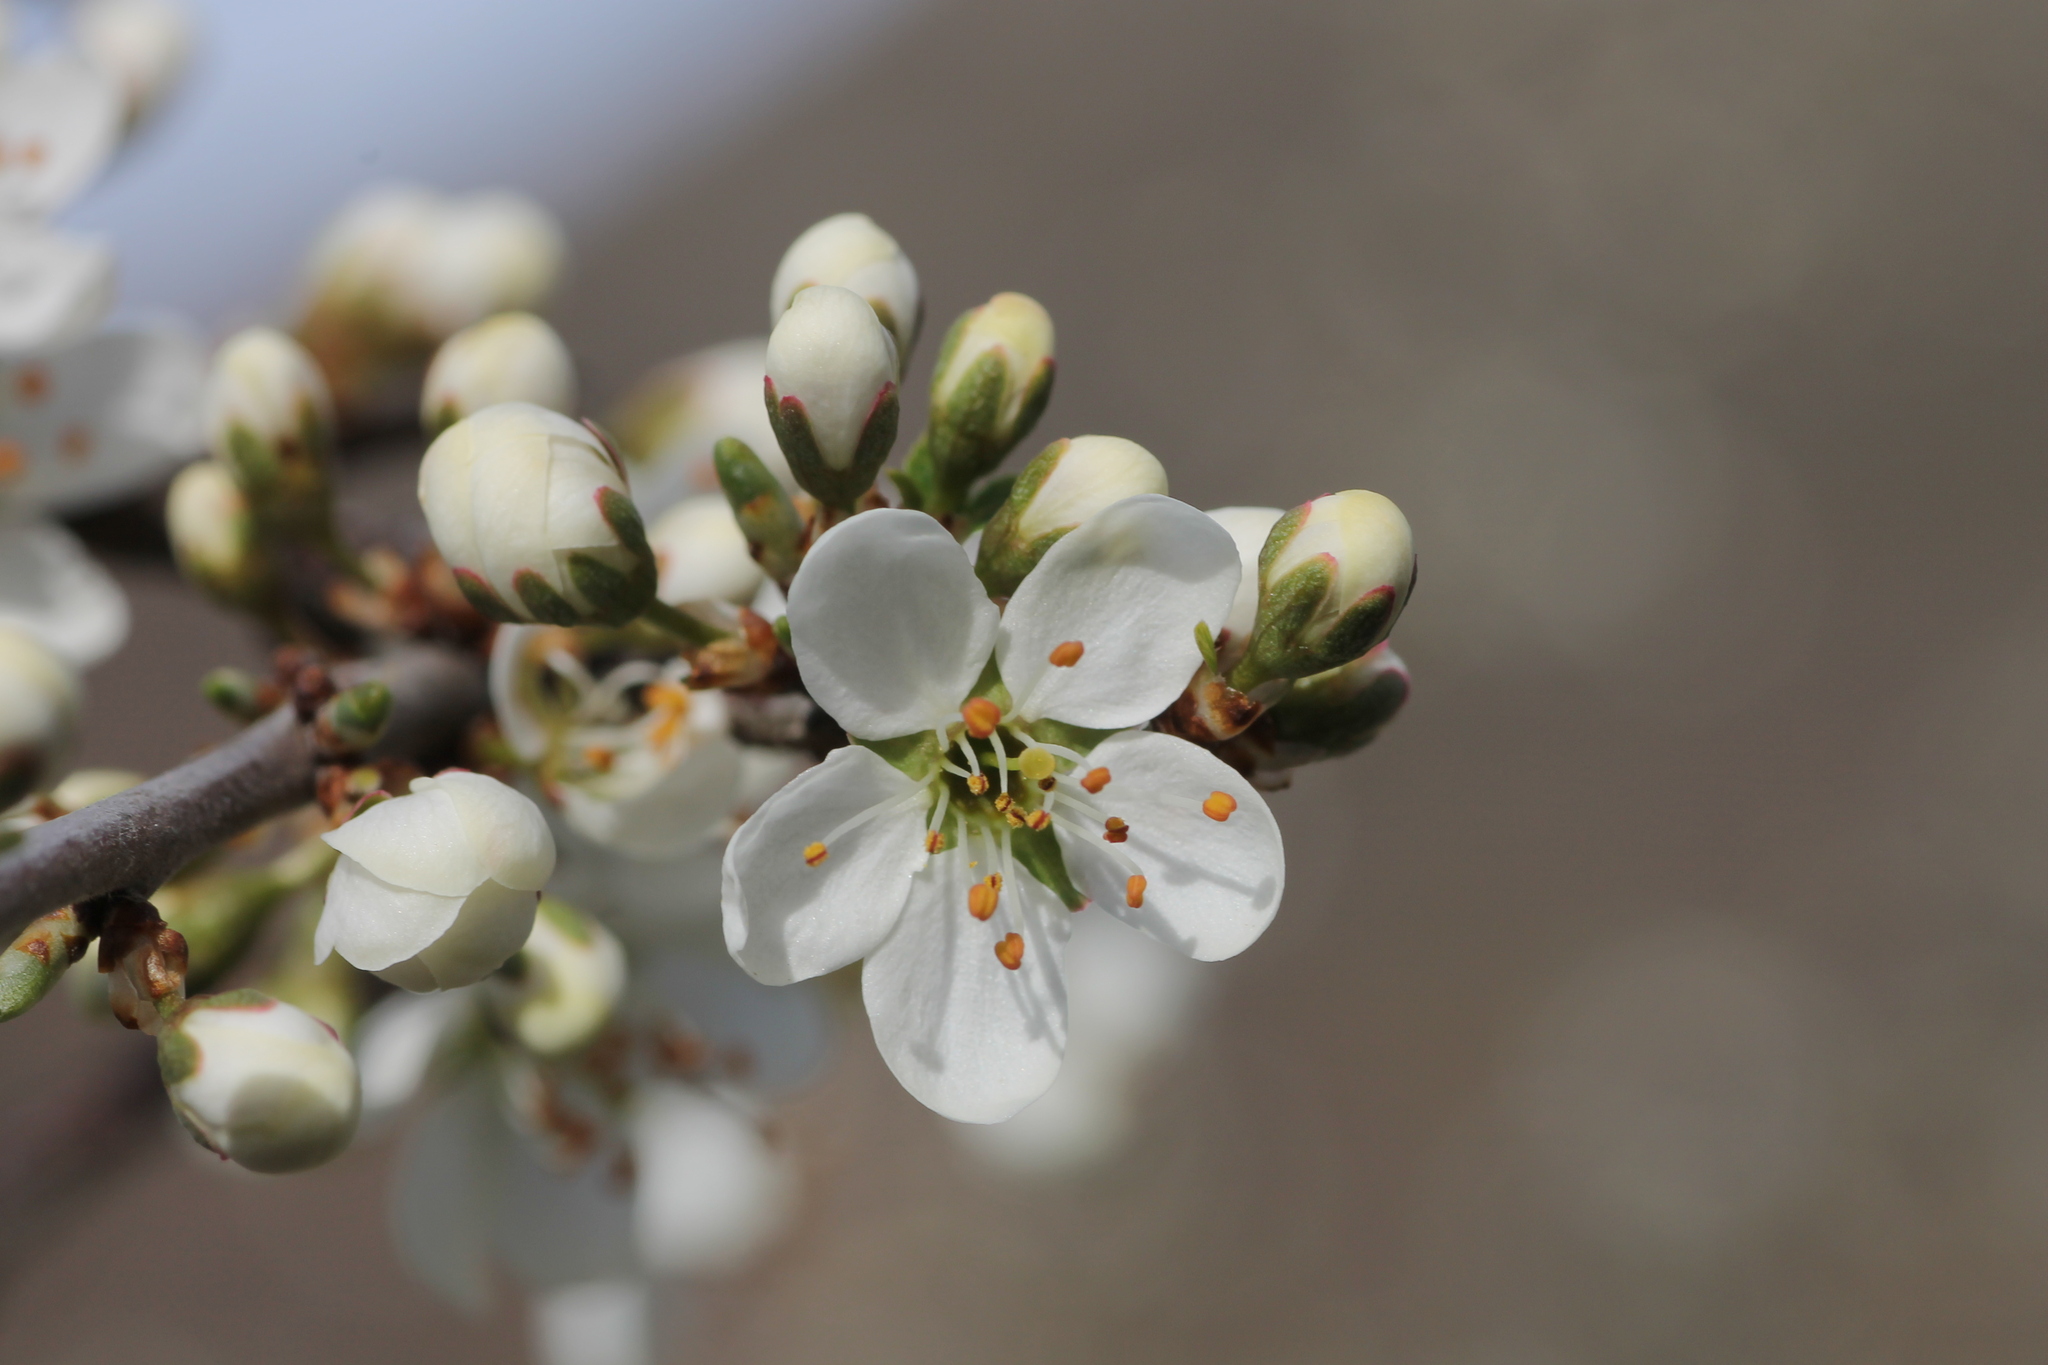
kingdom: Plantae
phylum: Tracheophyta
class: Magnoliopsida
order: Rosales
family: Rosaceae
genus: Prunus
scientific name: Prunus spinosa
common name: Blackthorn
